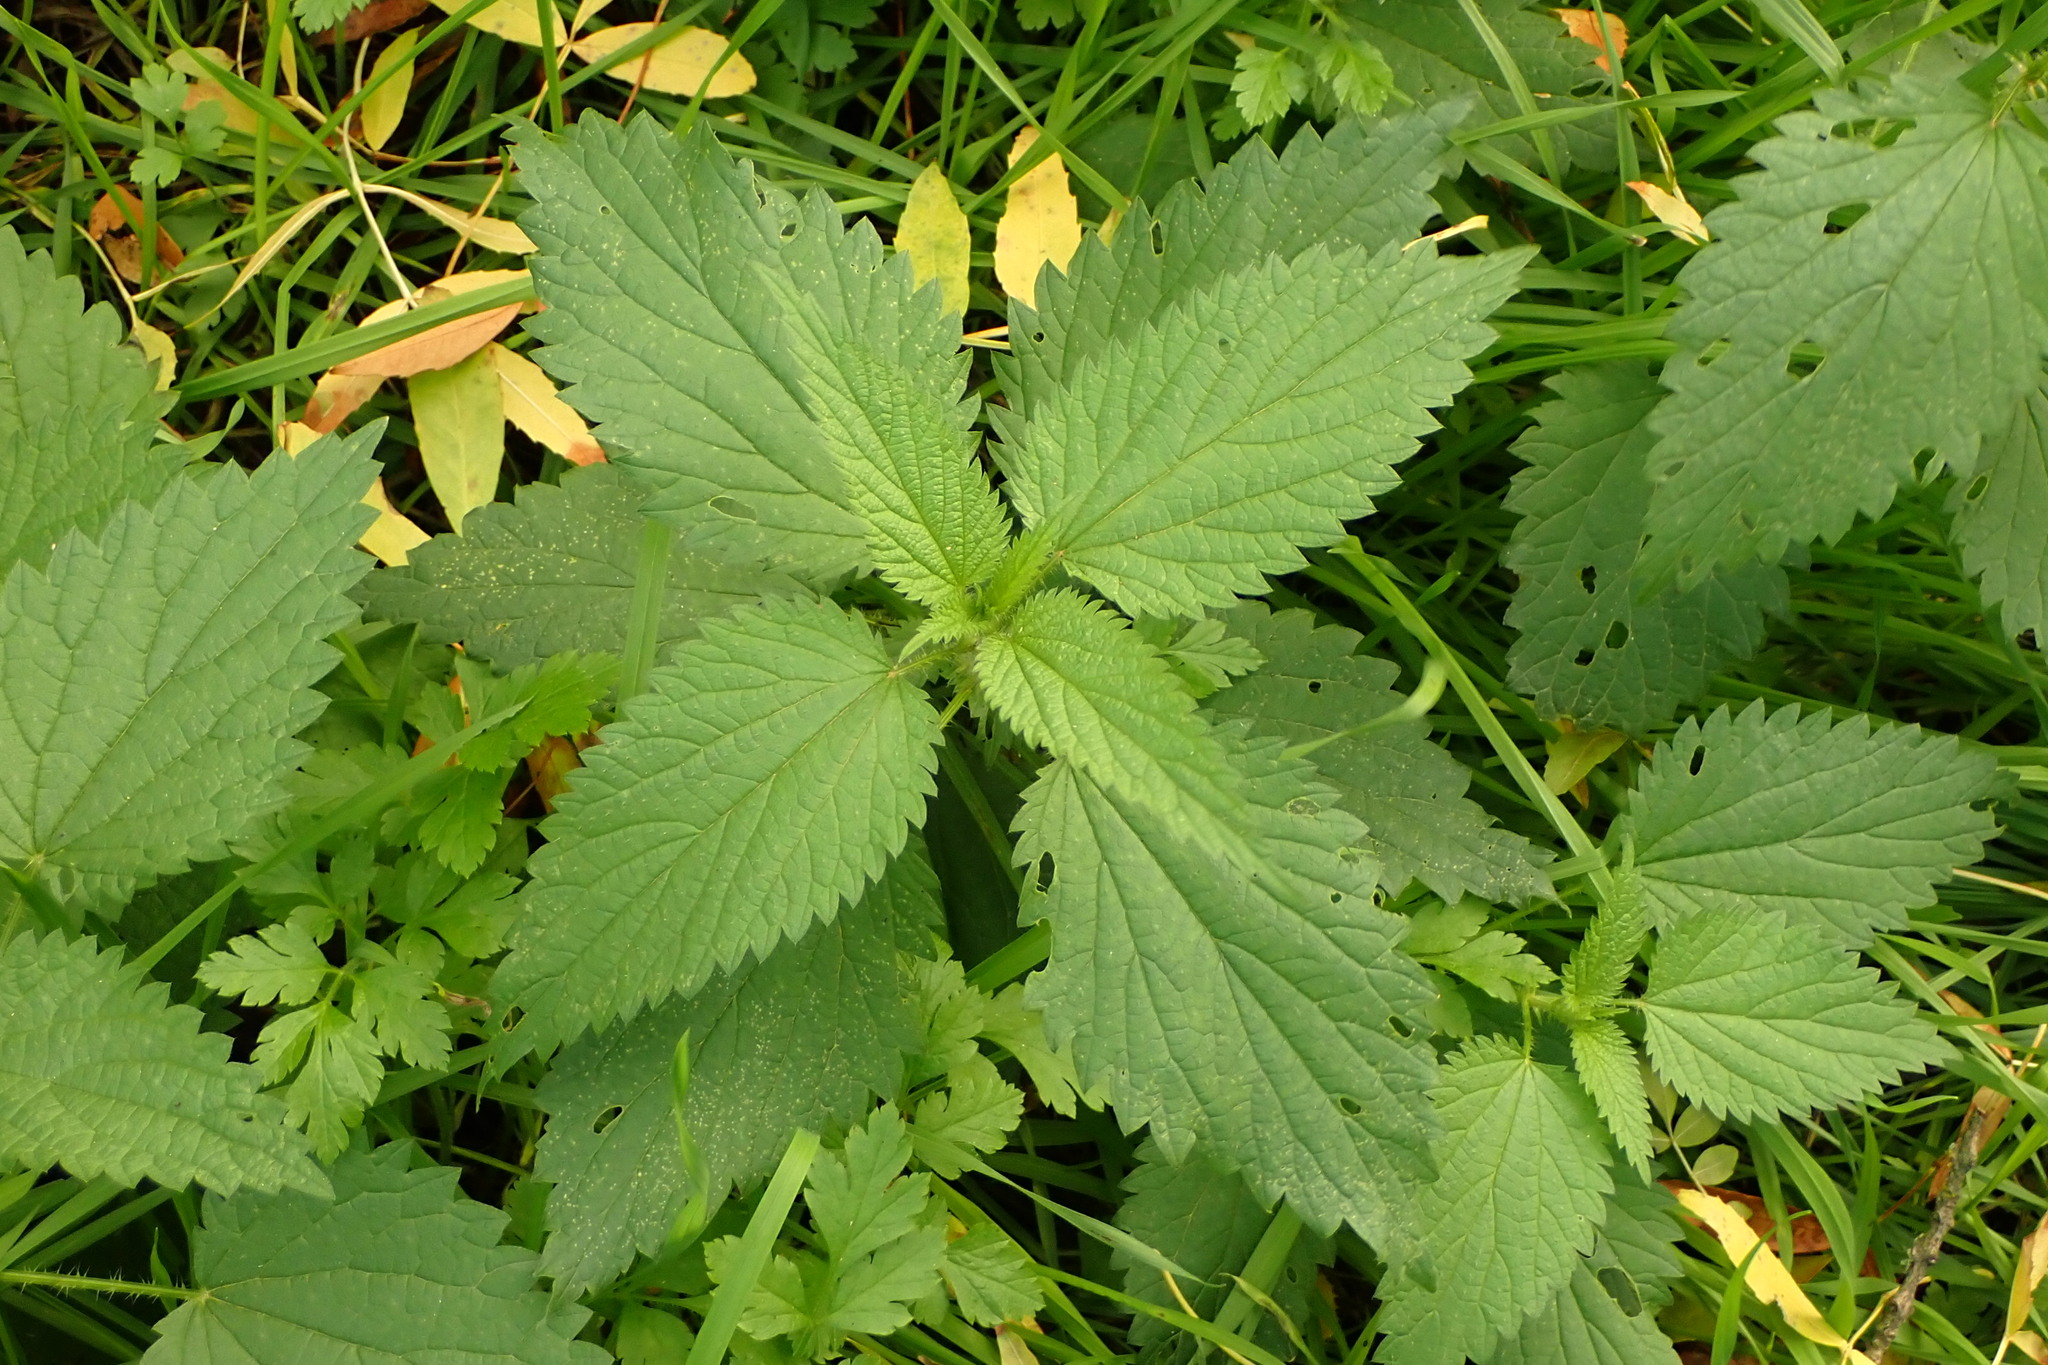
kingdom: Plantae
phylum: Tracheophyta
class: Magnoliopsida
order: Rosales
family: Urticaceae
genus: Urtica
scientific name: Urtica dioica
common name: Common nettle
